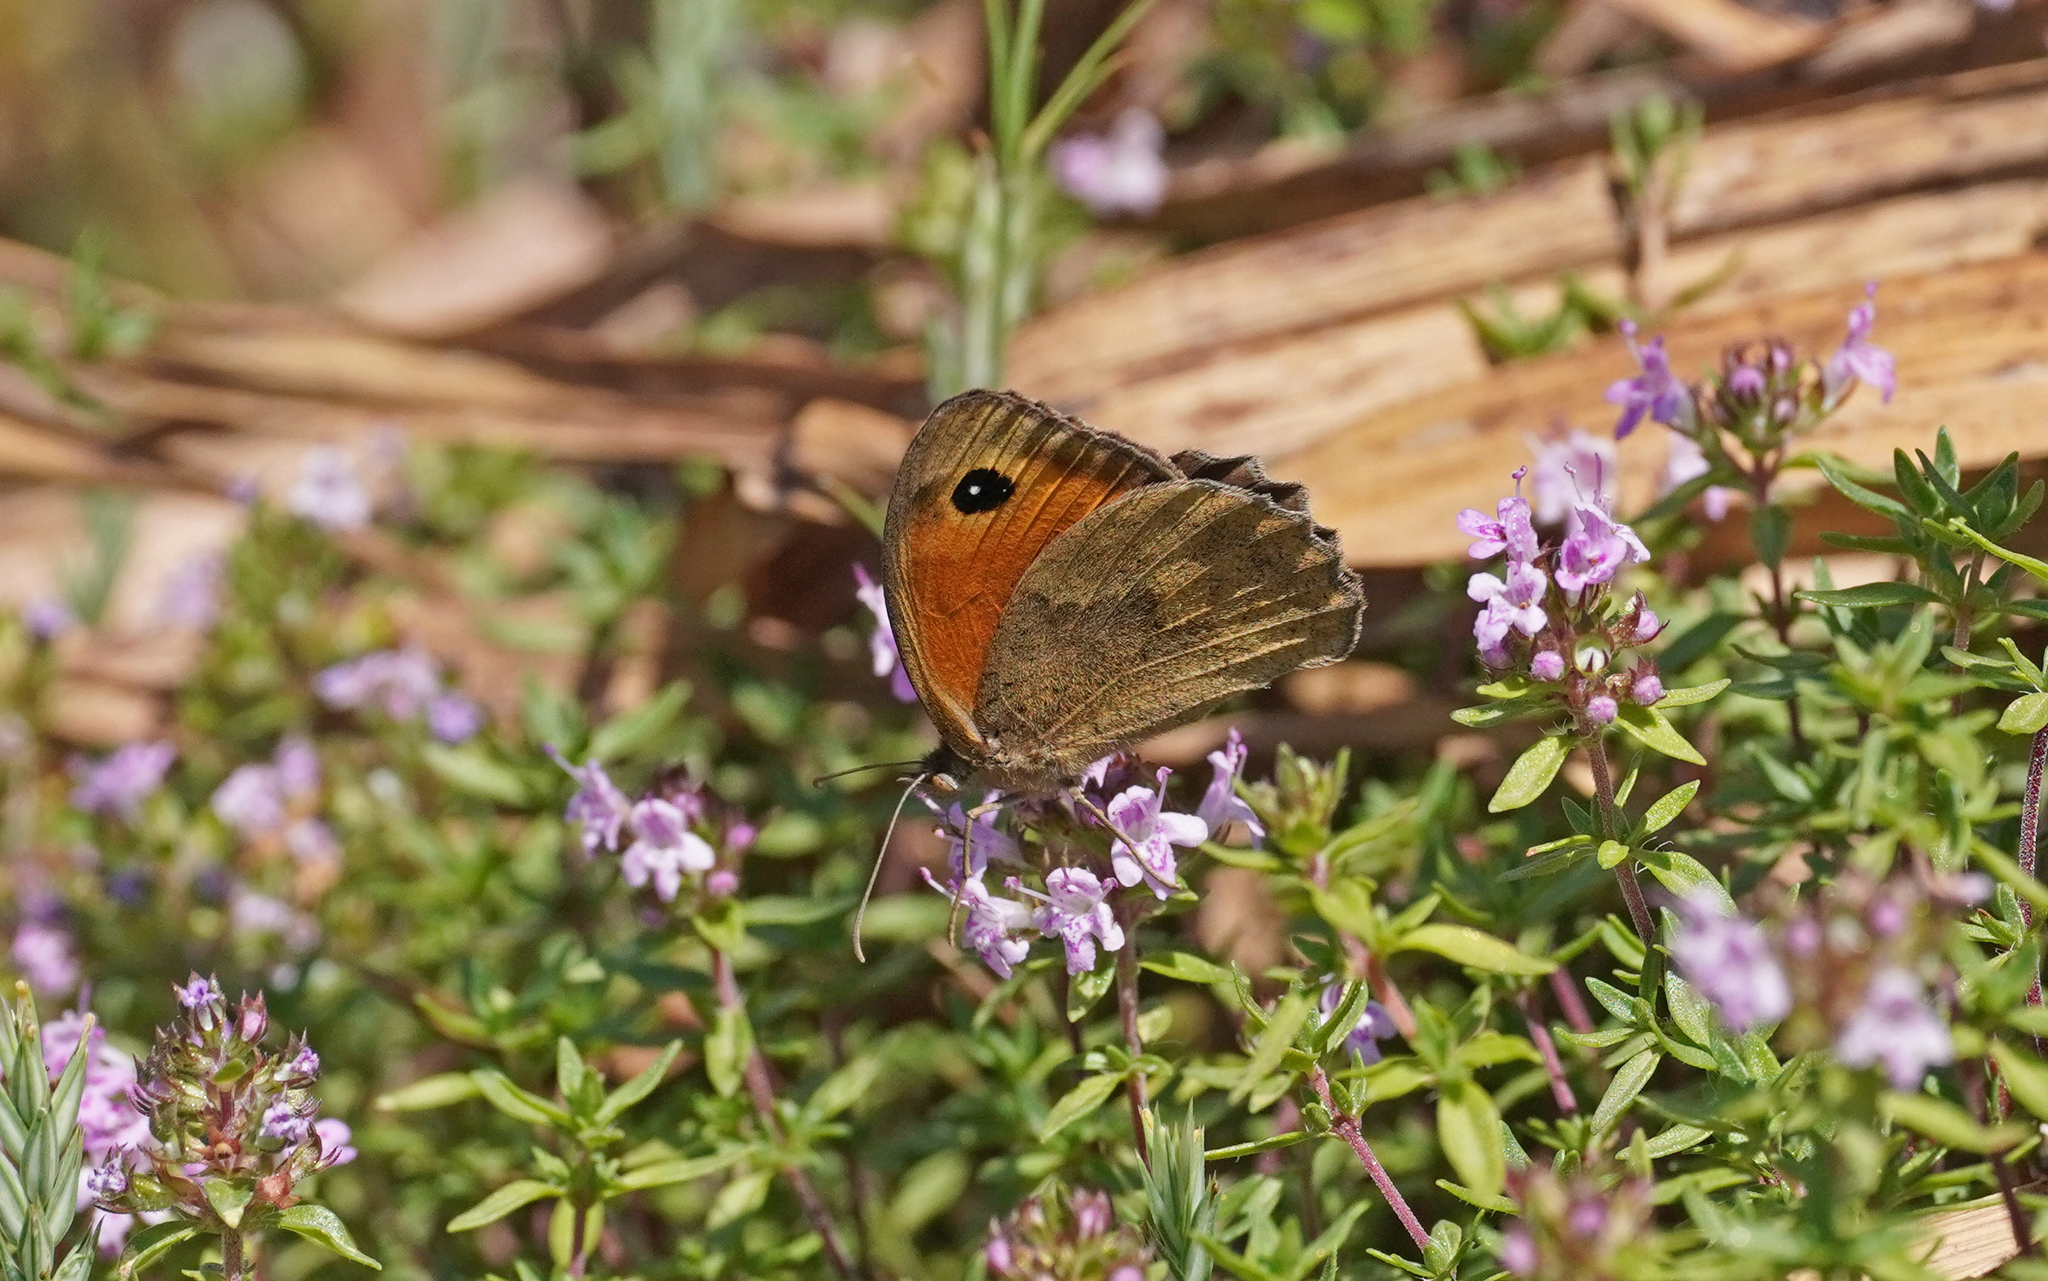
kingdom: Animalia
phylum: Arthropoda
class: Insecta
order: Lepidoptera
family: Nymphalidae
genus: Maniola
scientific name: Maniola nurag
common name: Sardinian meadow brown
